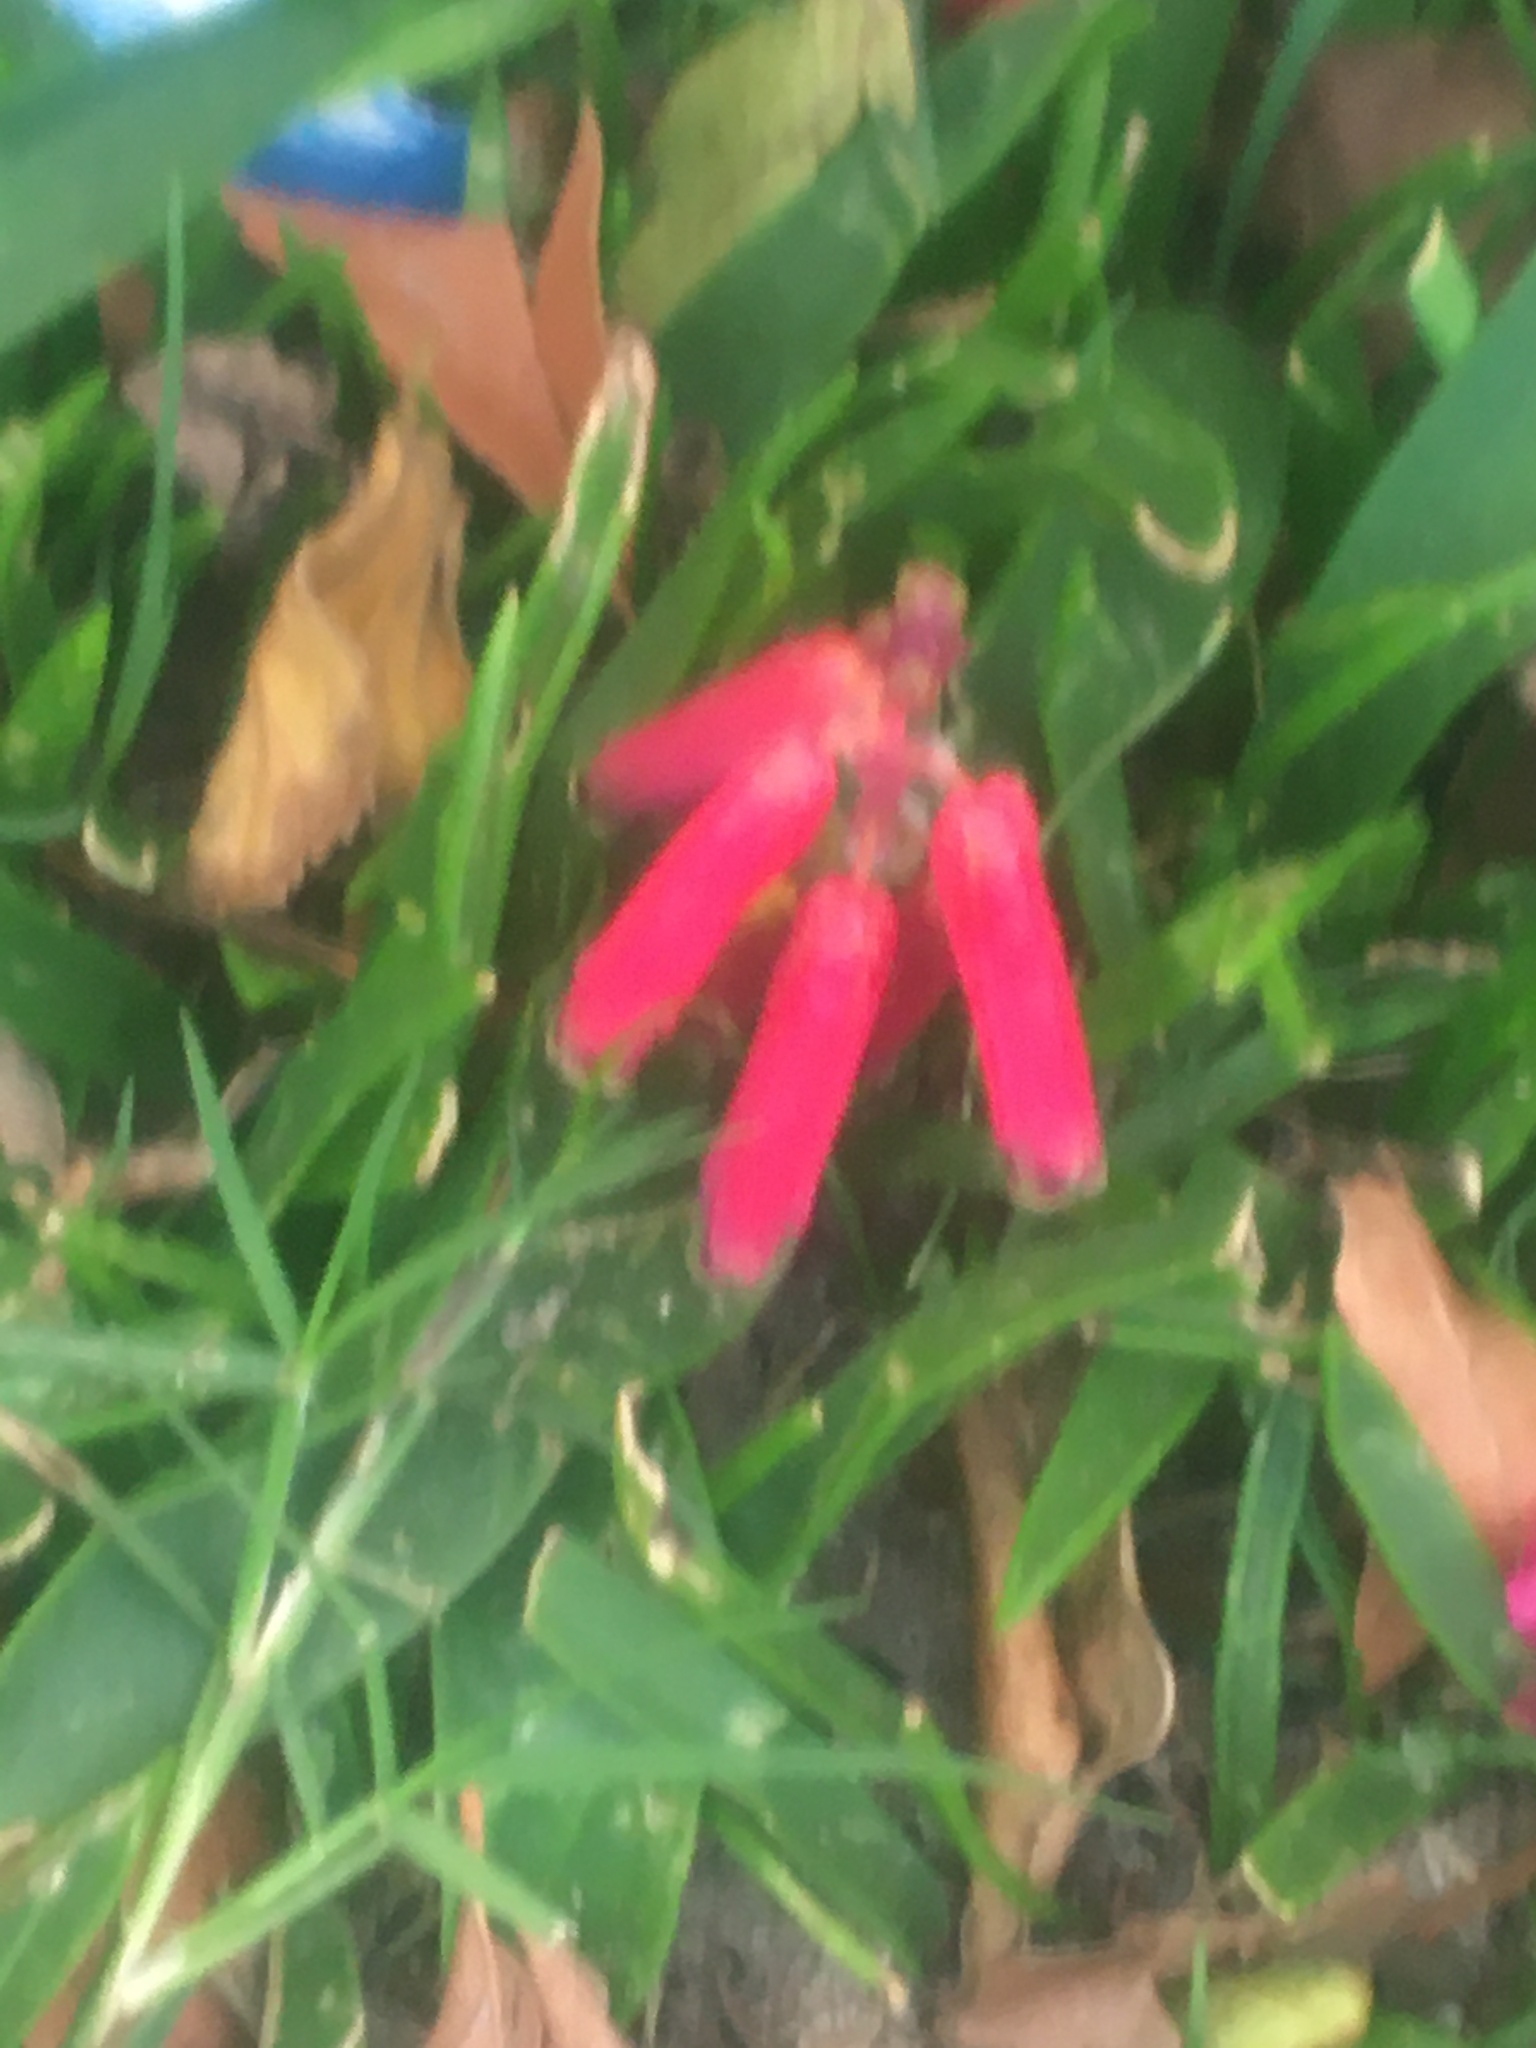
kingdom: Plantae
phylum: Tracheophyta
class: Liliopsida
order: Asparagales
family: Asparagaceae
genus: Lachenalia
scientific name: Lachenalia bulbifera
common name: Red lachenalia
